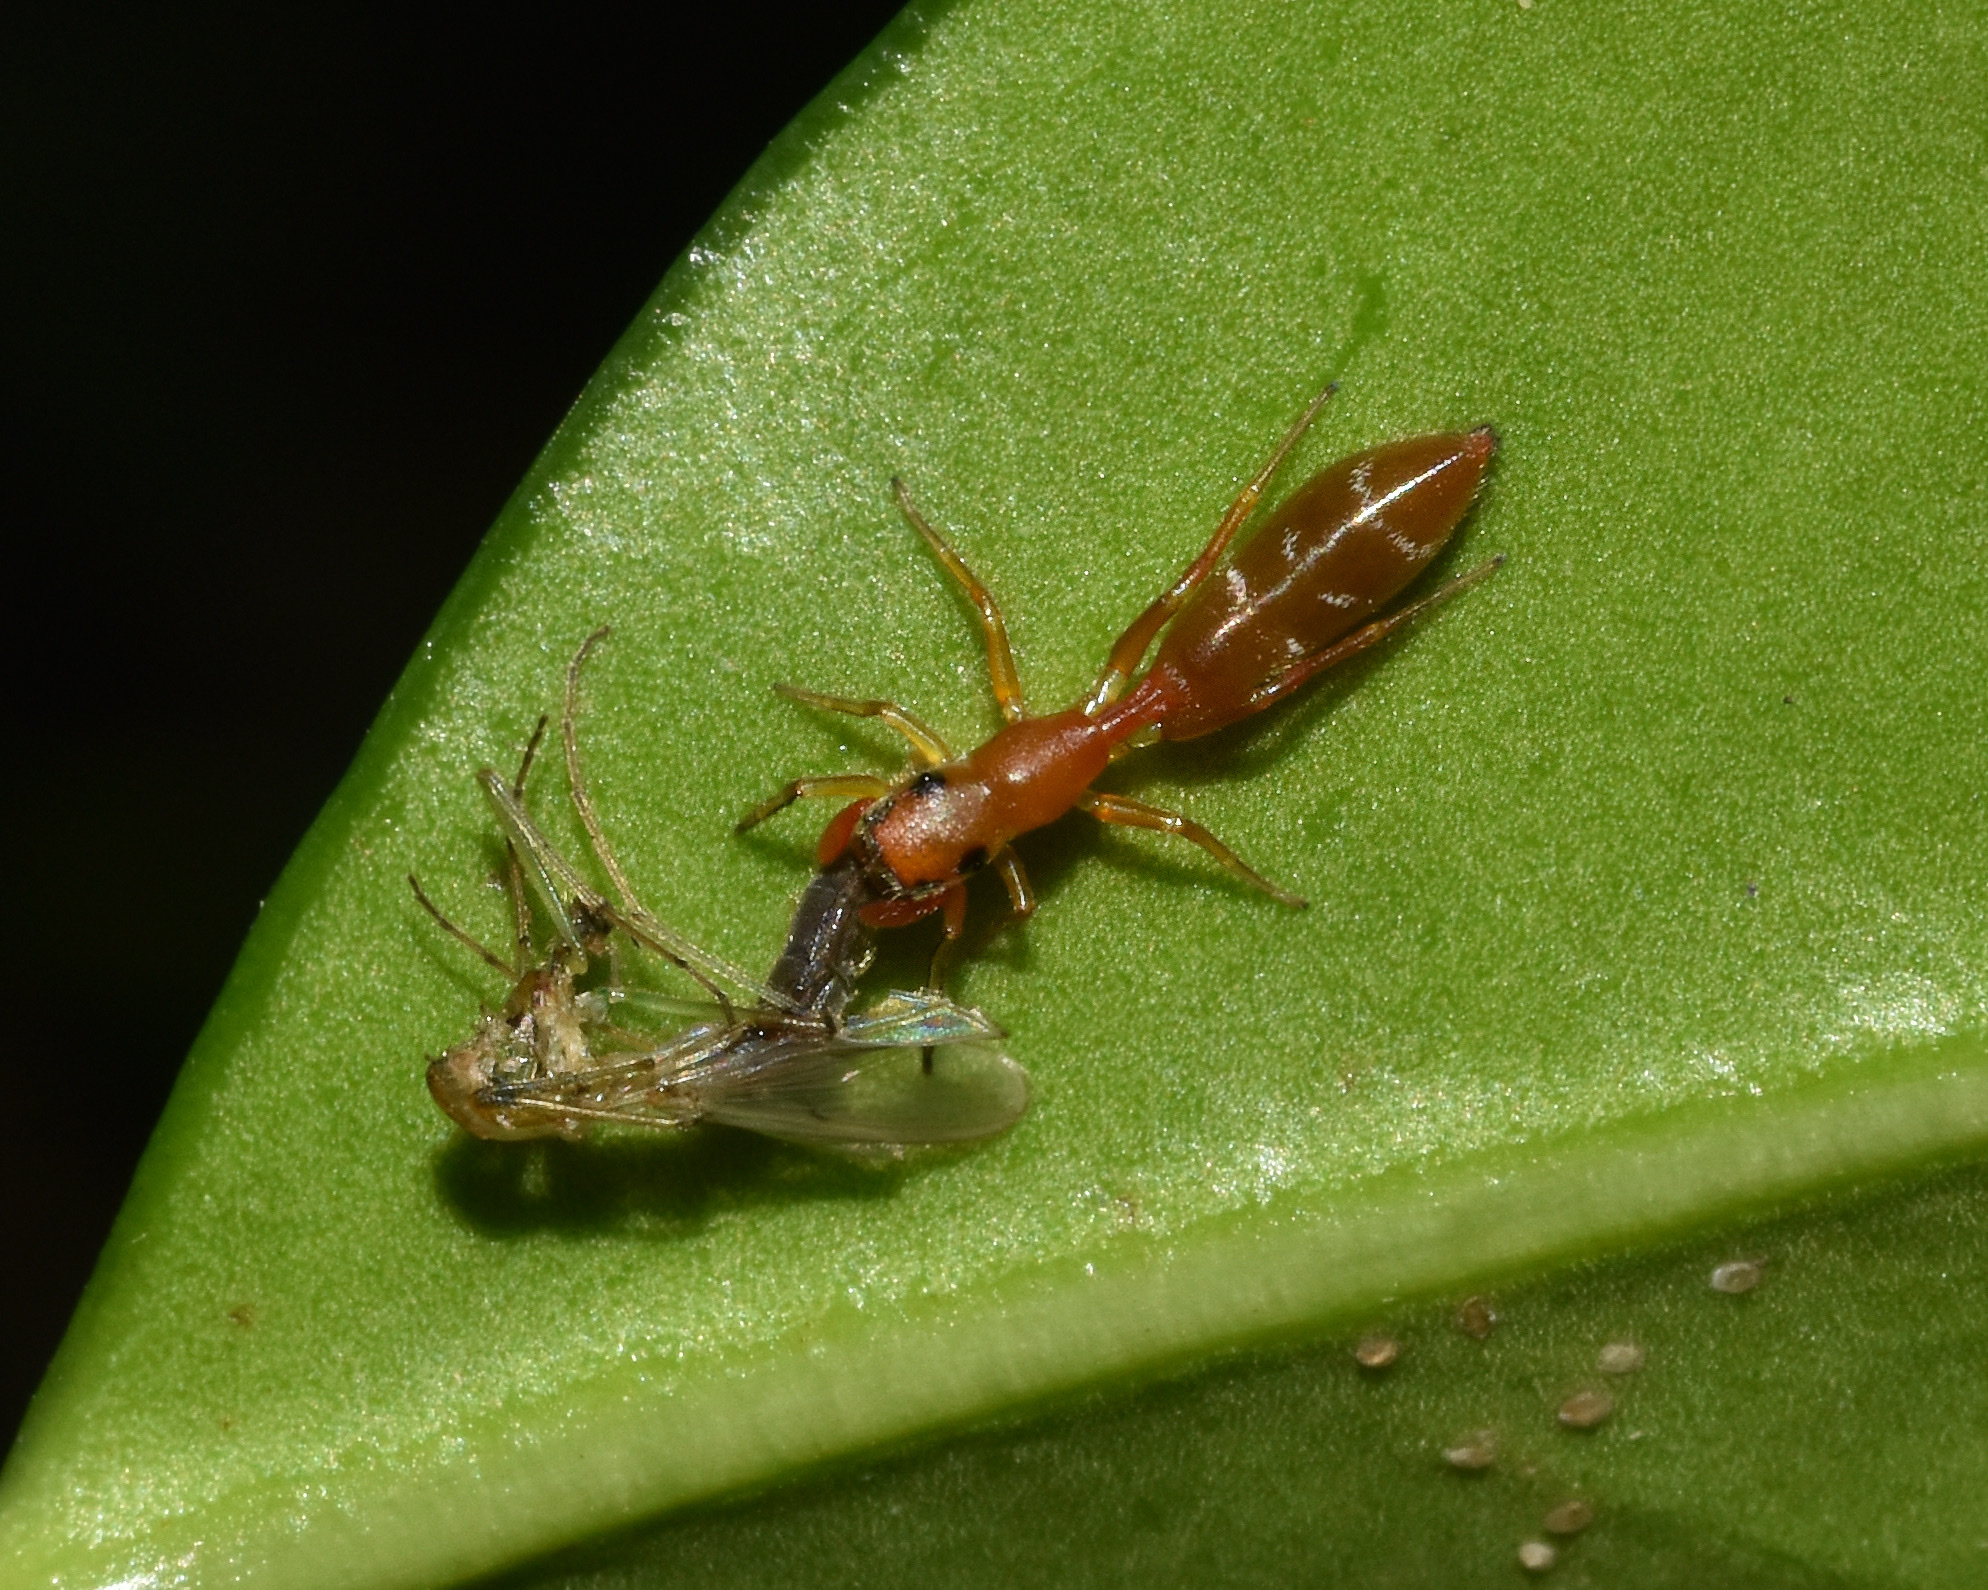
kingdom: Animalia
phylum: Arthropoda
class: Arachnida
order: Araneae
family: Salticidae
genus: Myrmarachne
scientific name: Myrmarachne ichneumon
